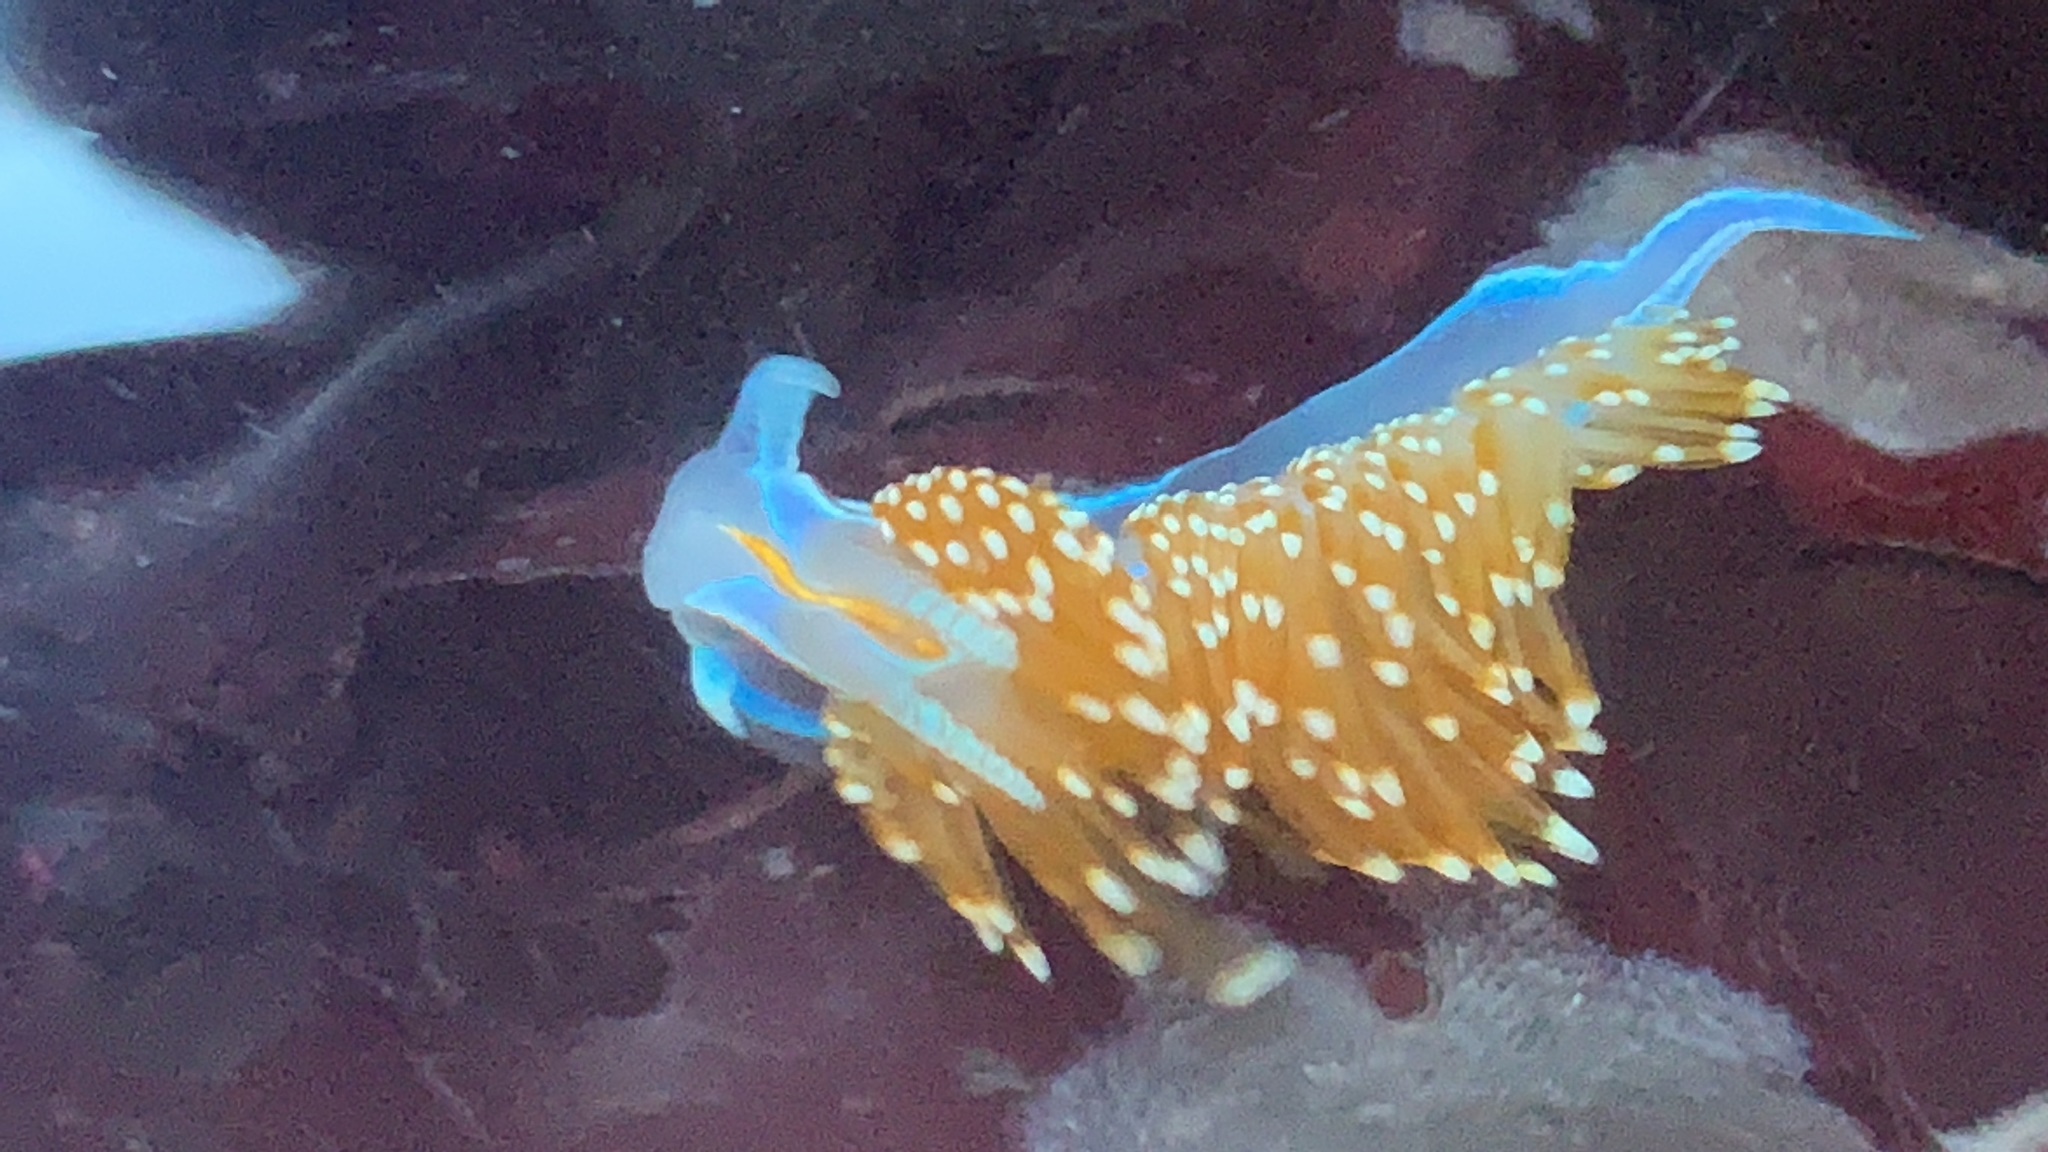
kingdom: Animalia
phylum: Mollusca
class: Gastropoda
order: Nudibranchia
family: Myrrhinidae
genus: Hermissenda
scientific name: Hermissenda opalescens
